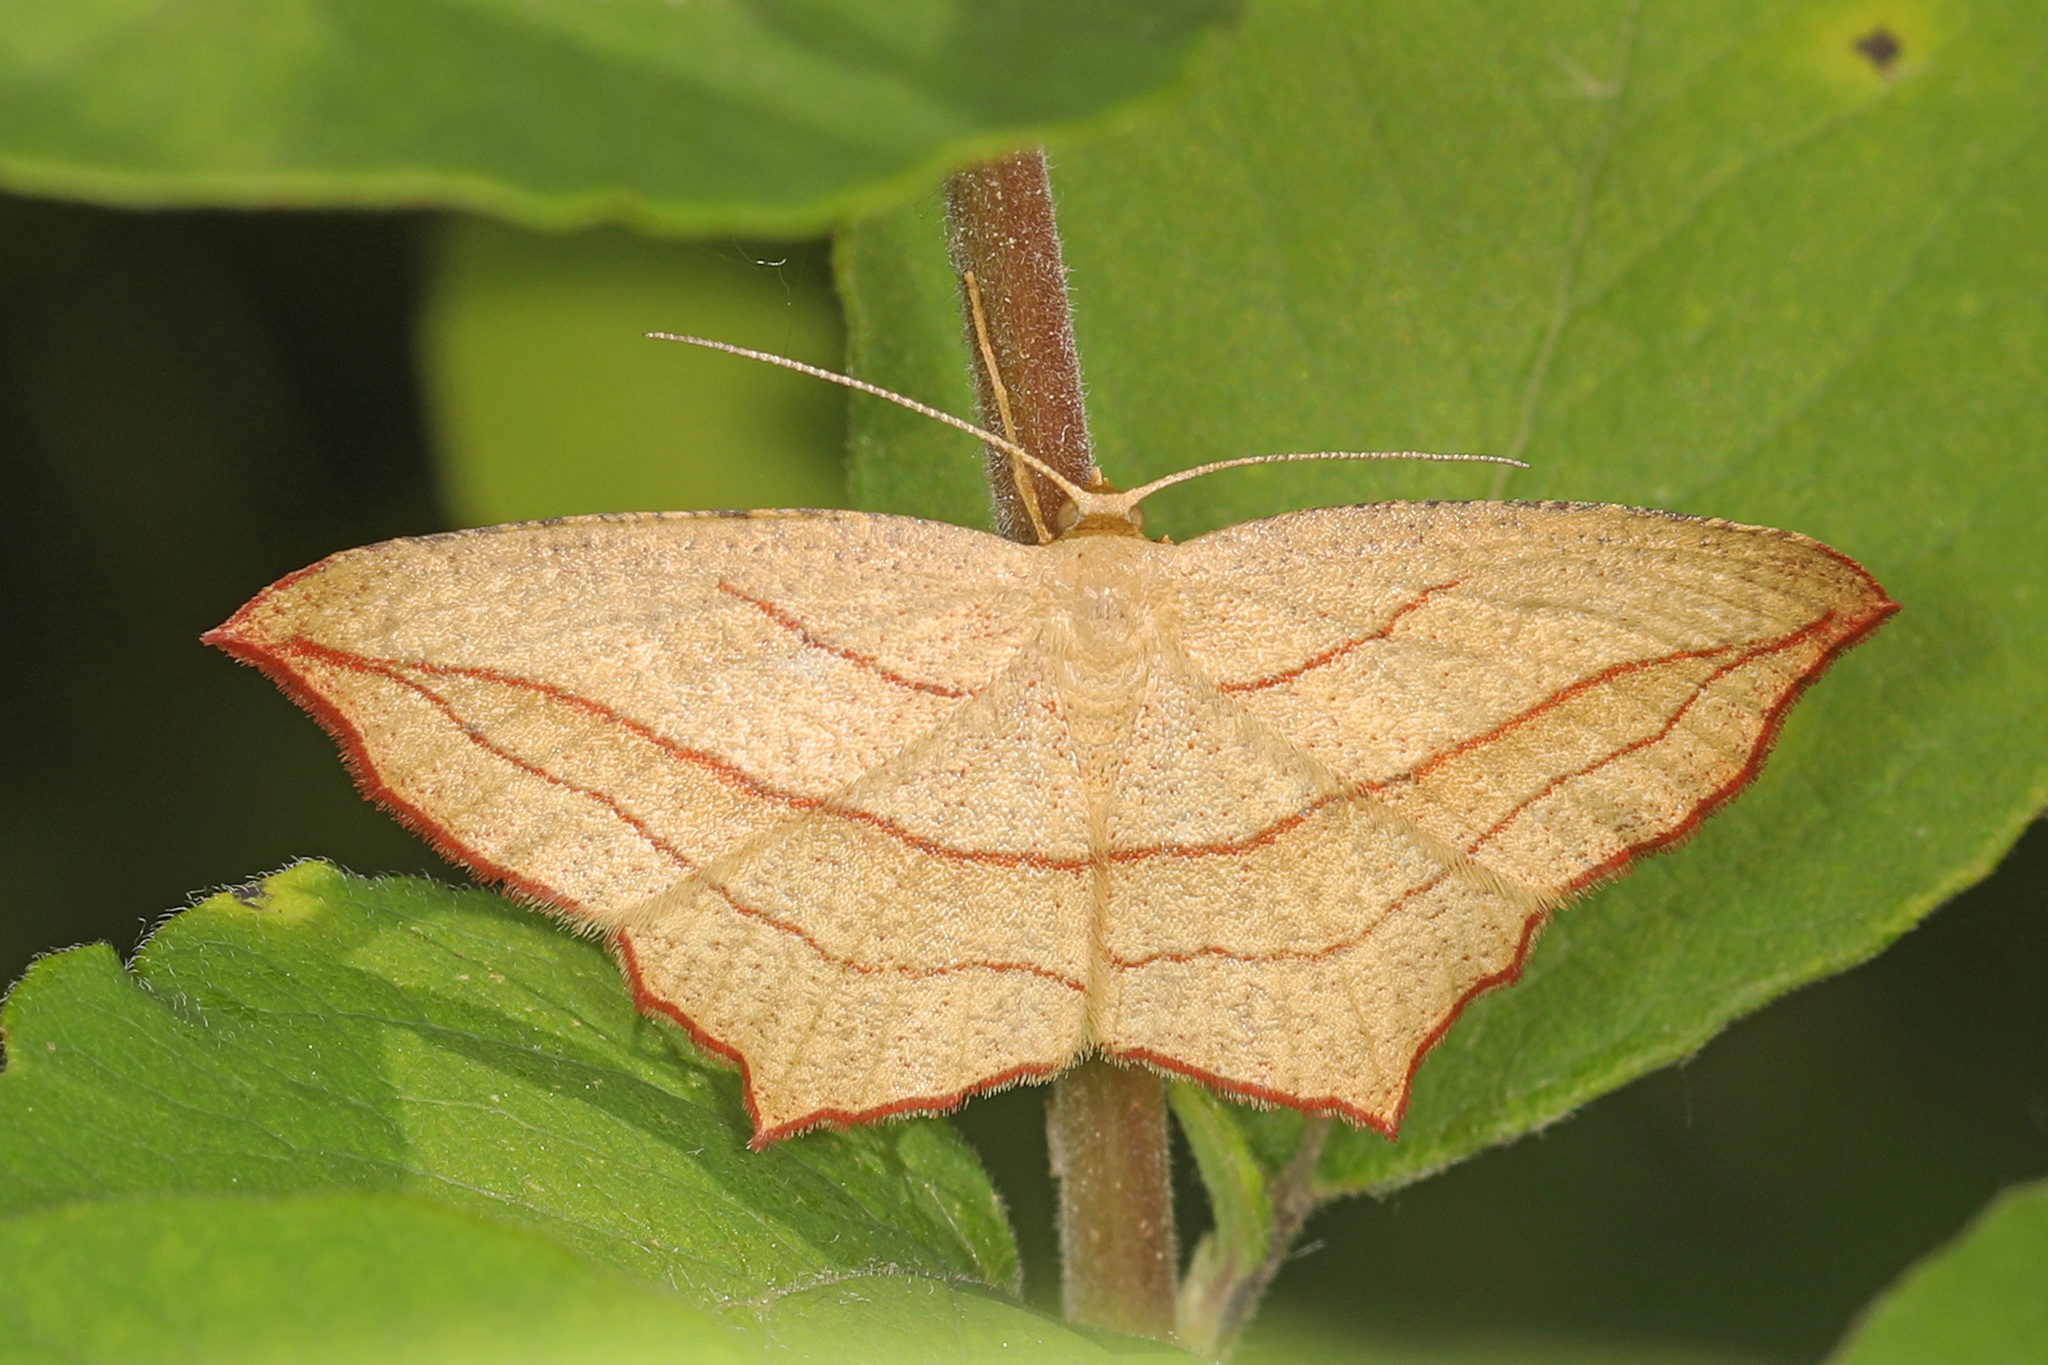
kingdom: Animalia
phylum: Arthropoda
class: Insecta
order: Lepidoptera
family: Geometridae
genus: Timandra
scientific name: Timandra amaturaria
